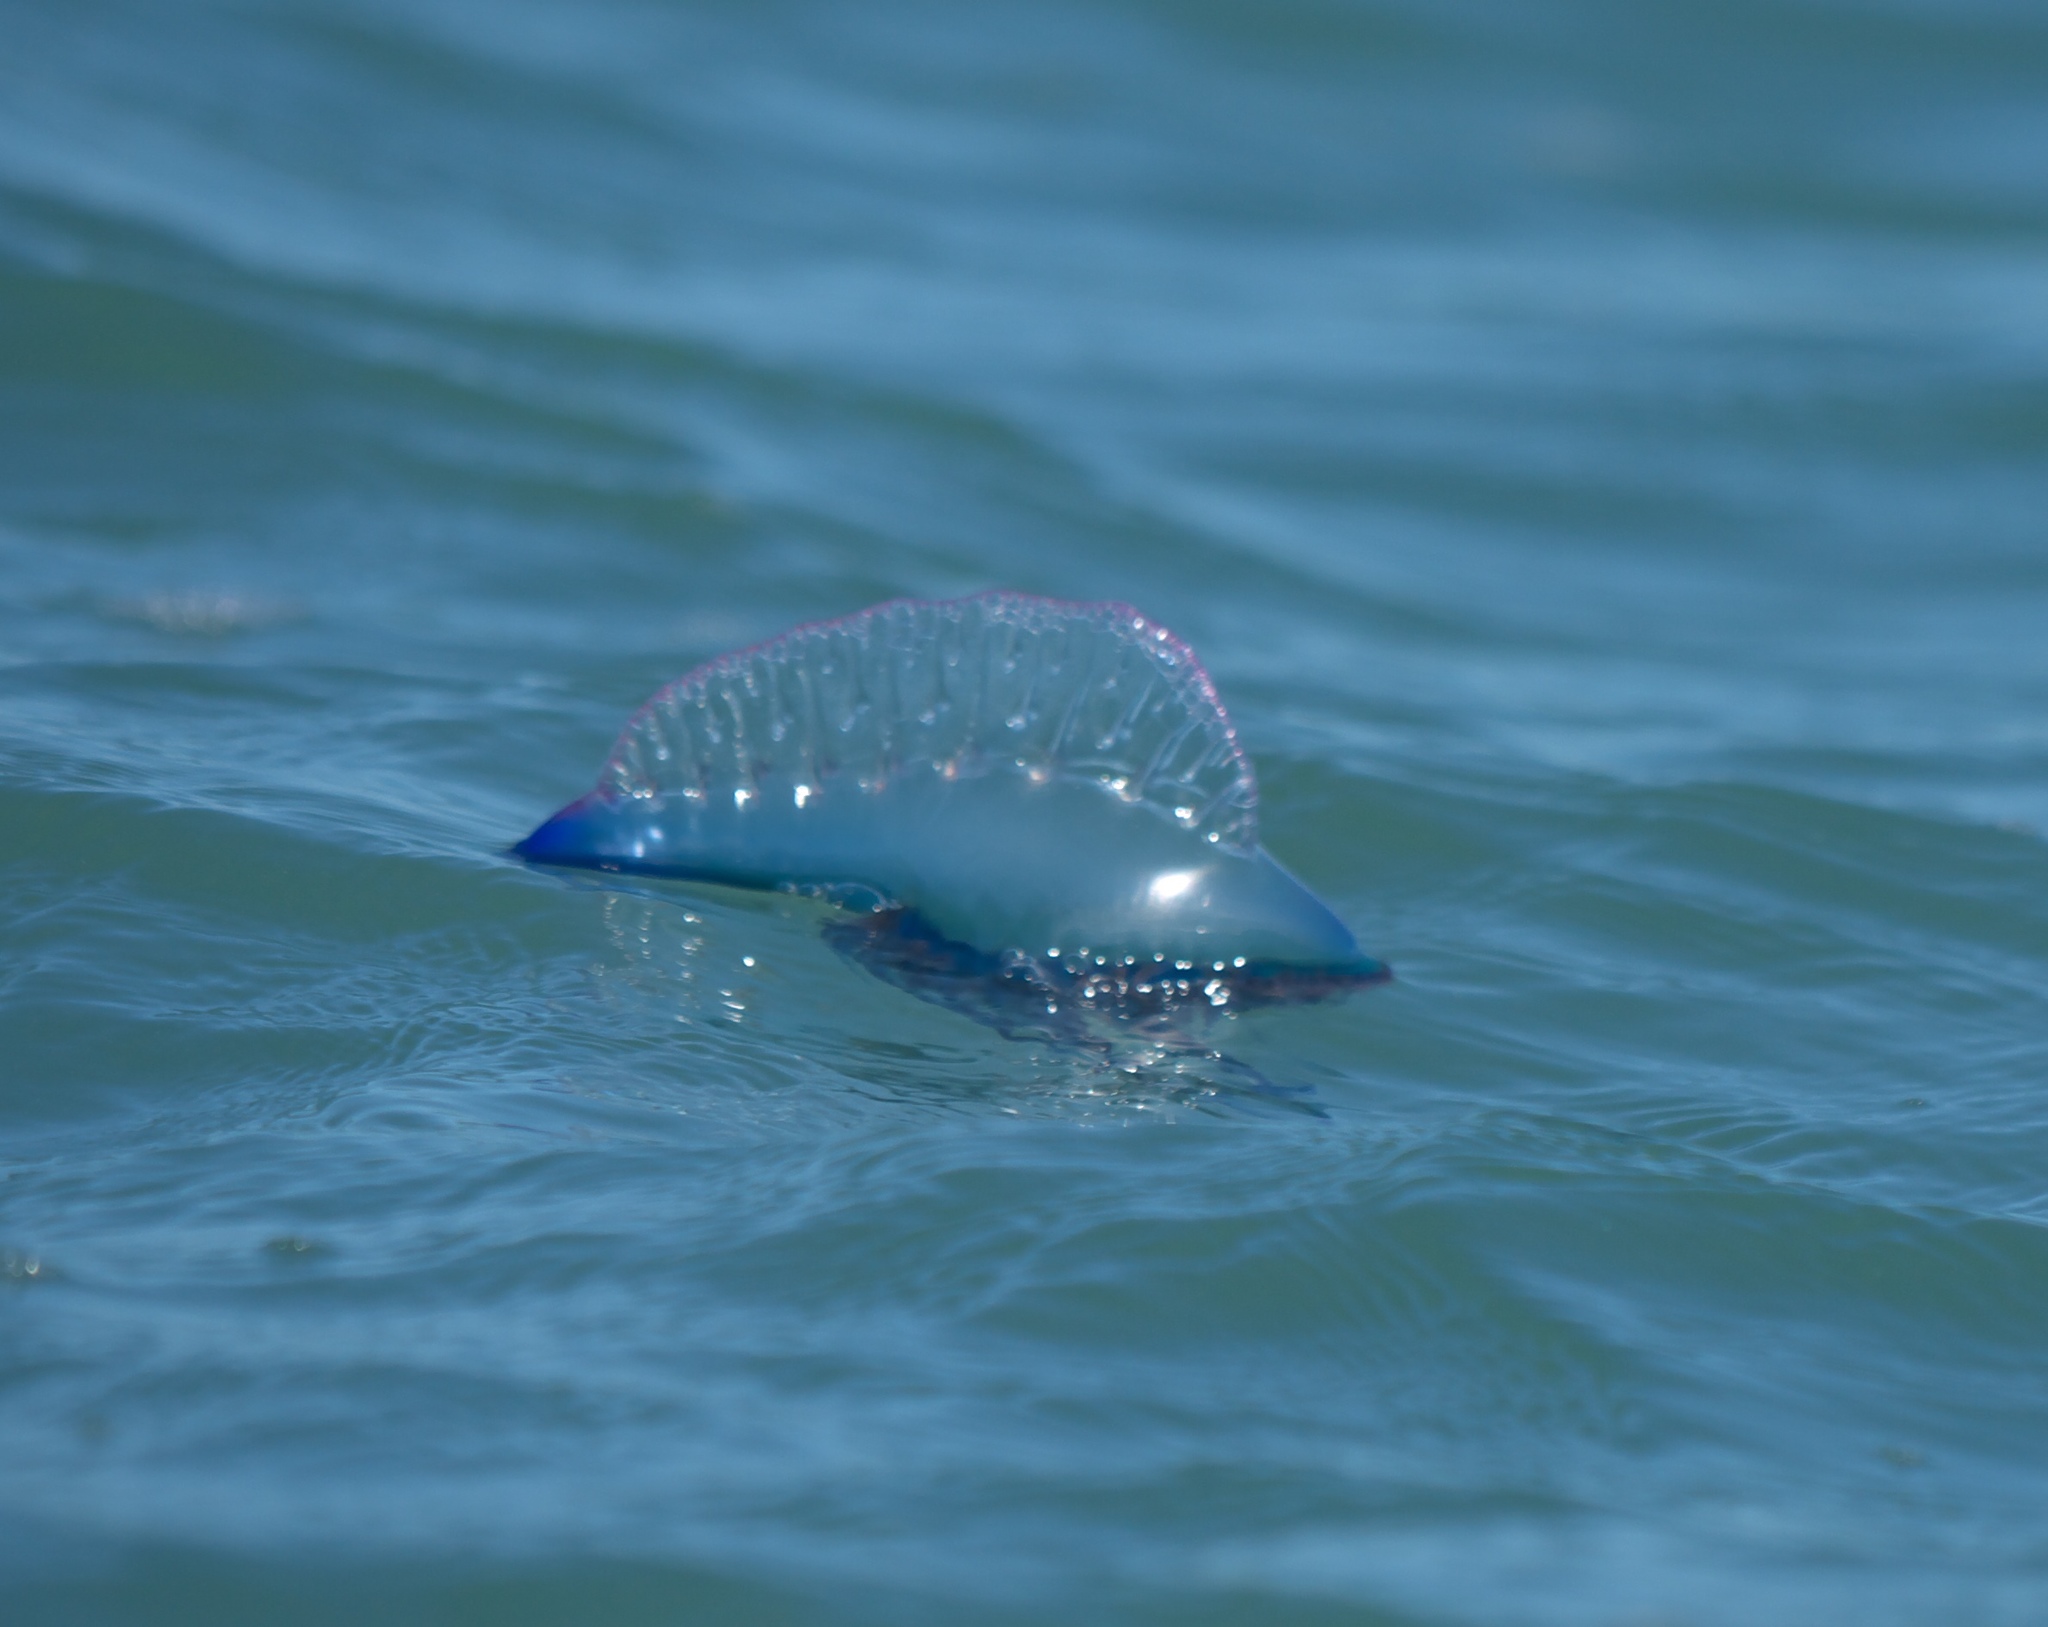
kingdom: Animalia
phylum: Cnidaria
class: Hydrozoa
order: Siphonophorae
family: Physaliidae
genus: Physalia
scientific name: Physalia physalis
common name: Portuguese man-of-war
